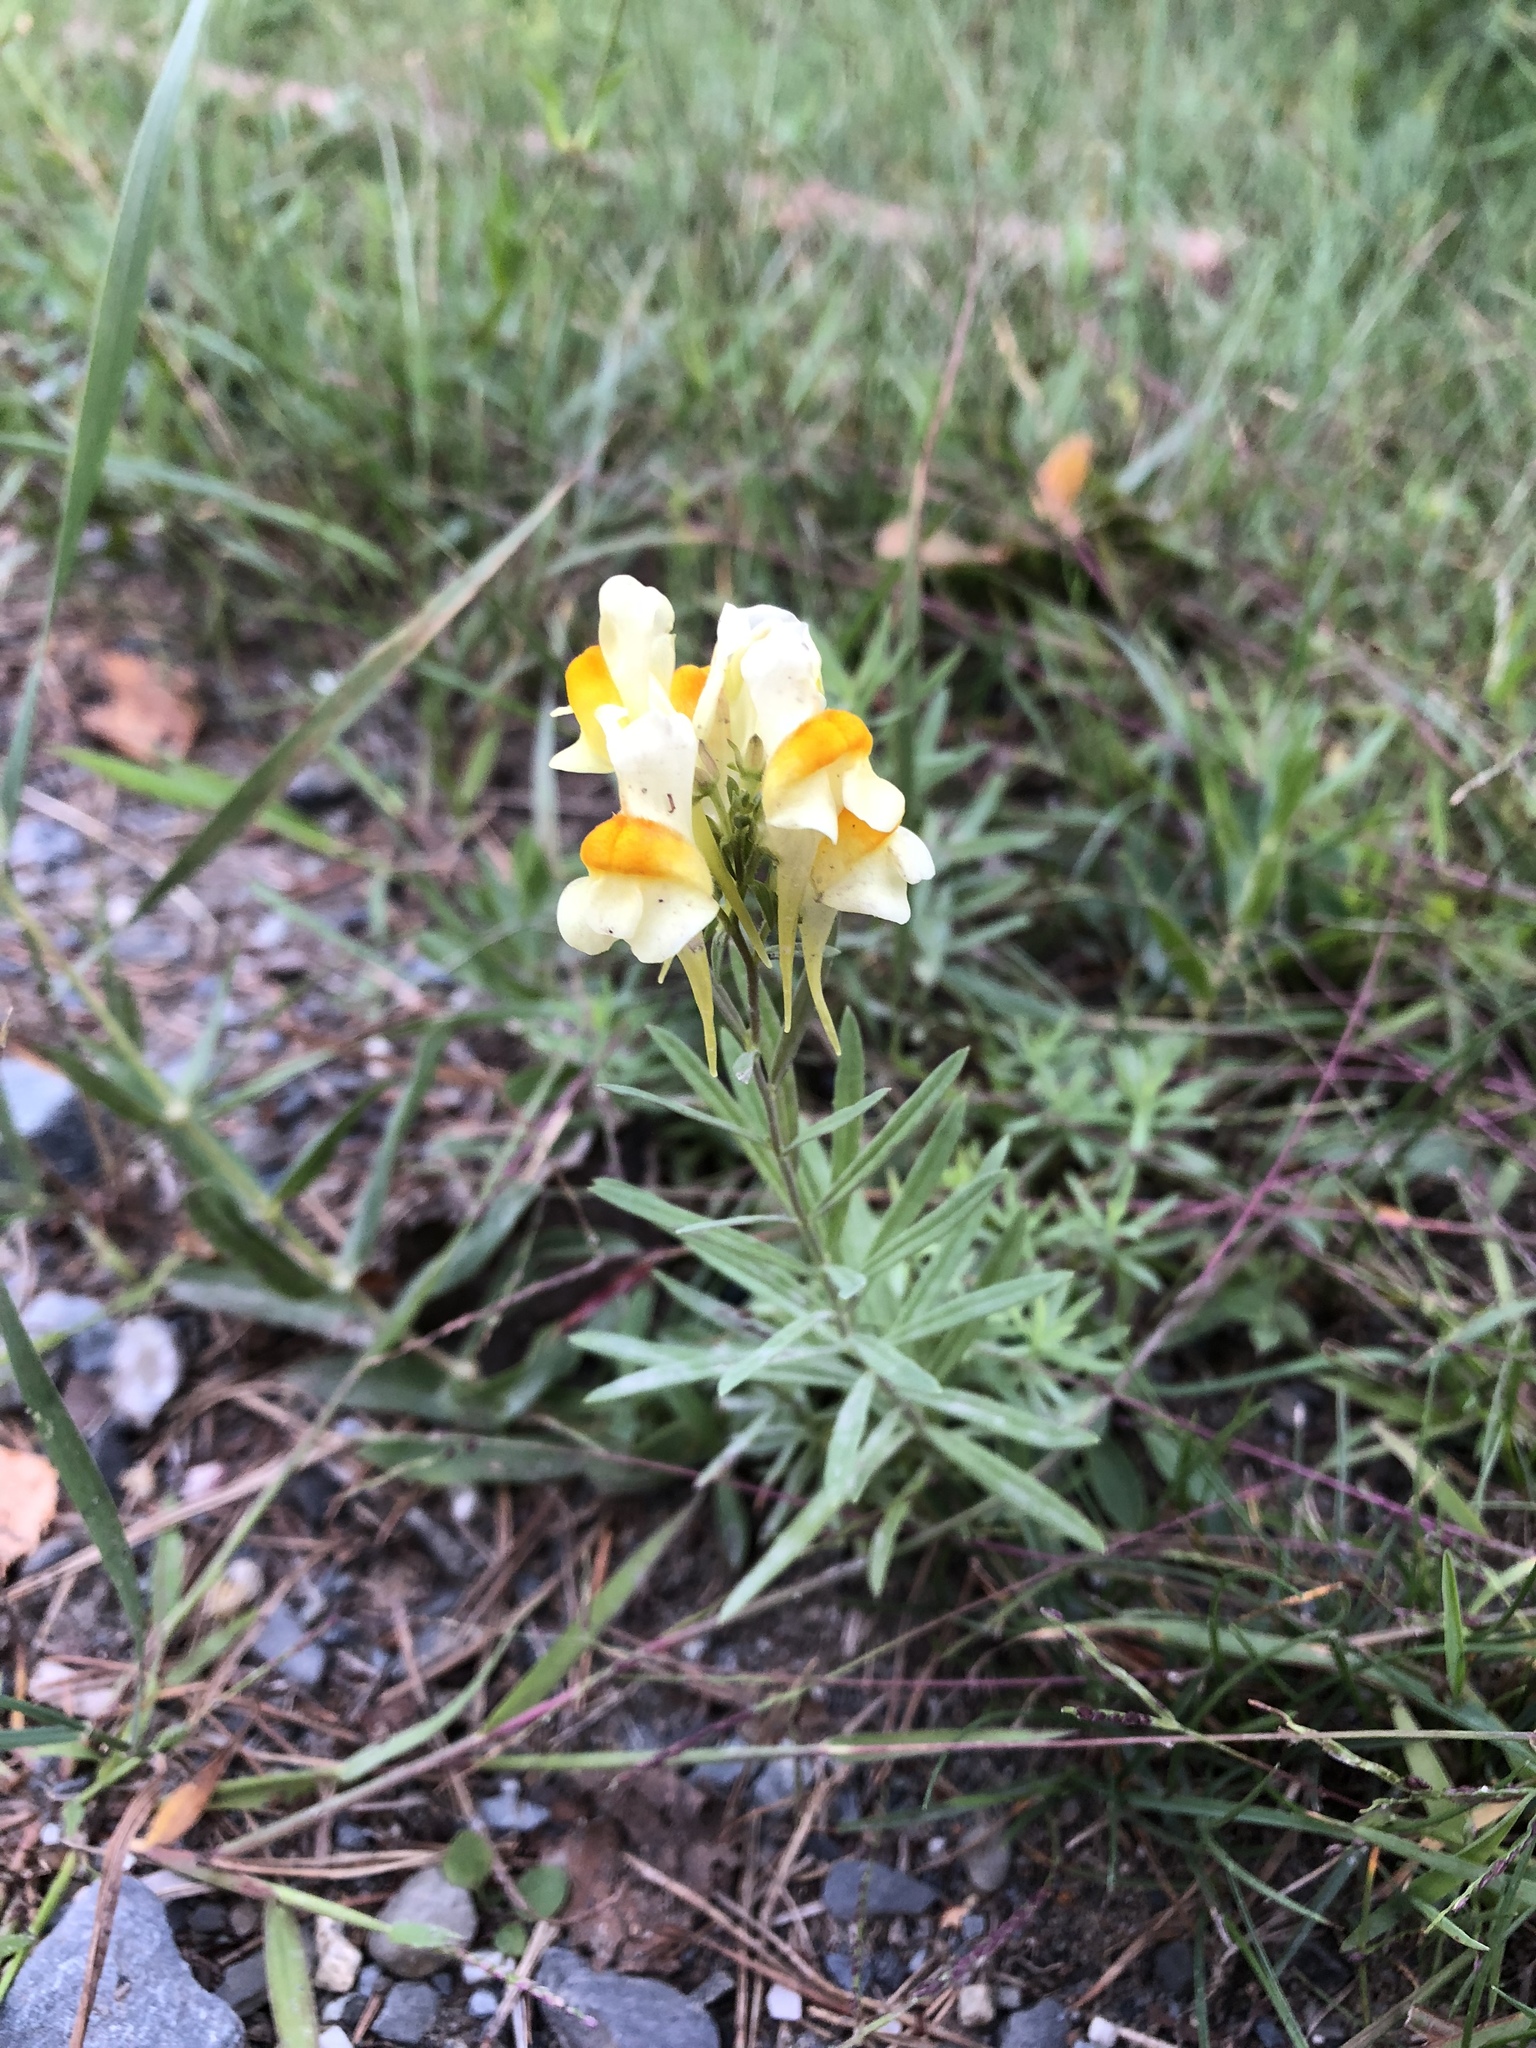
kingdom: Plantae
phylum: Tracheophyta
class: Magnoliopsida
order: Lamiales
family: Plantaginaceae
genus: Linaria
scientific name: Linaria vulgaris
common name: Butter and eggs
